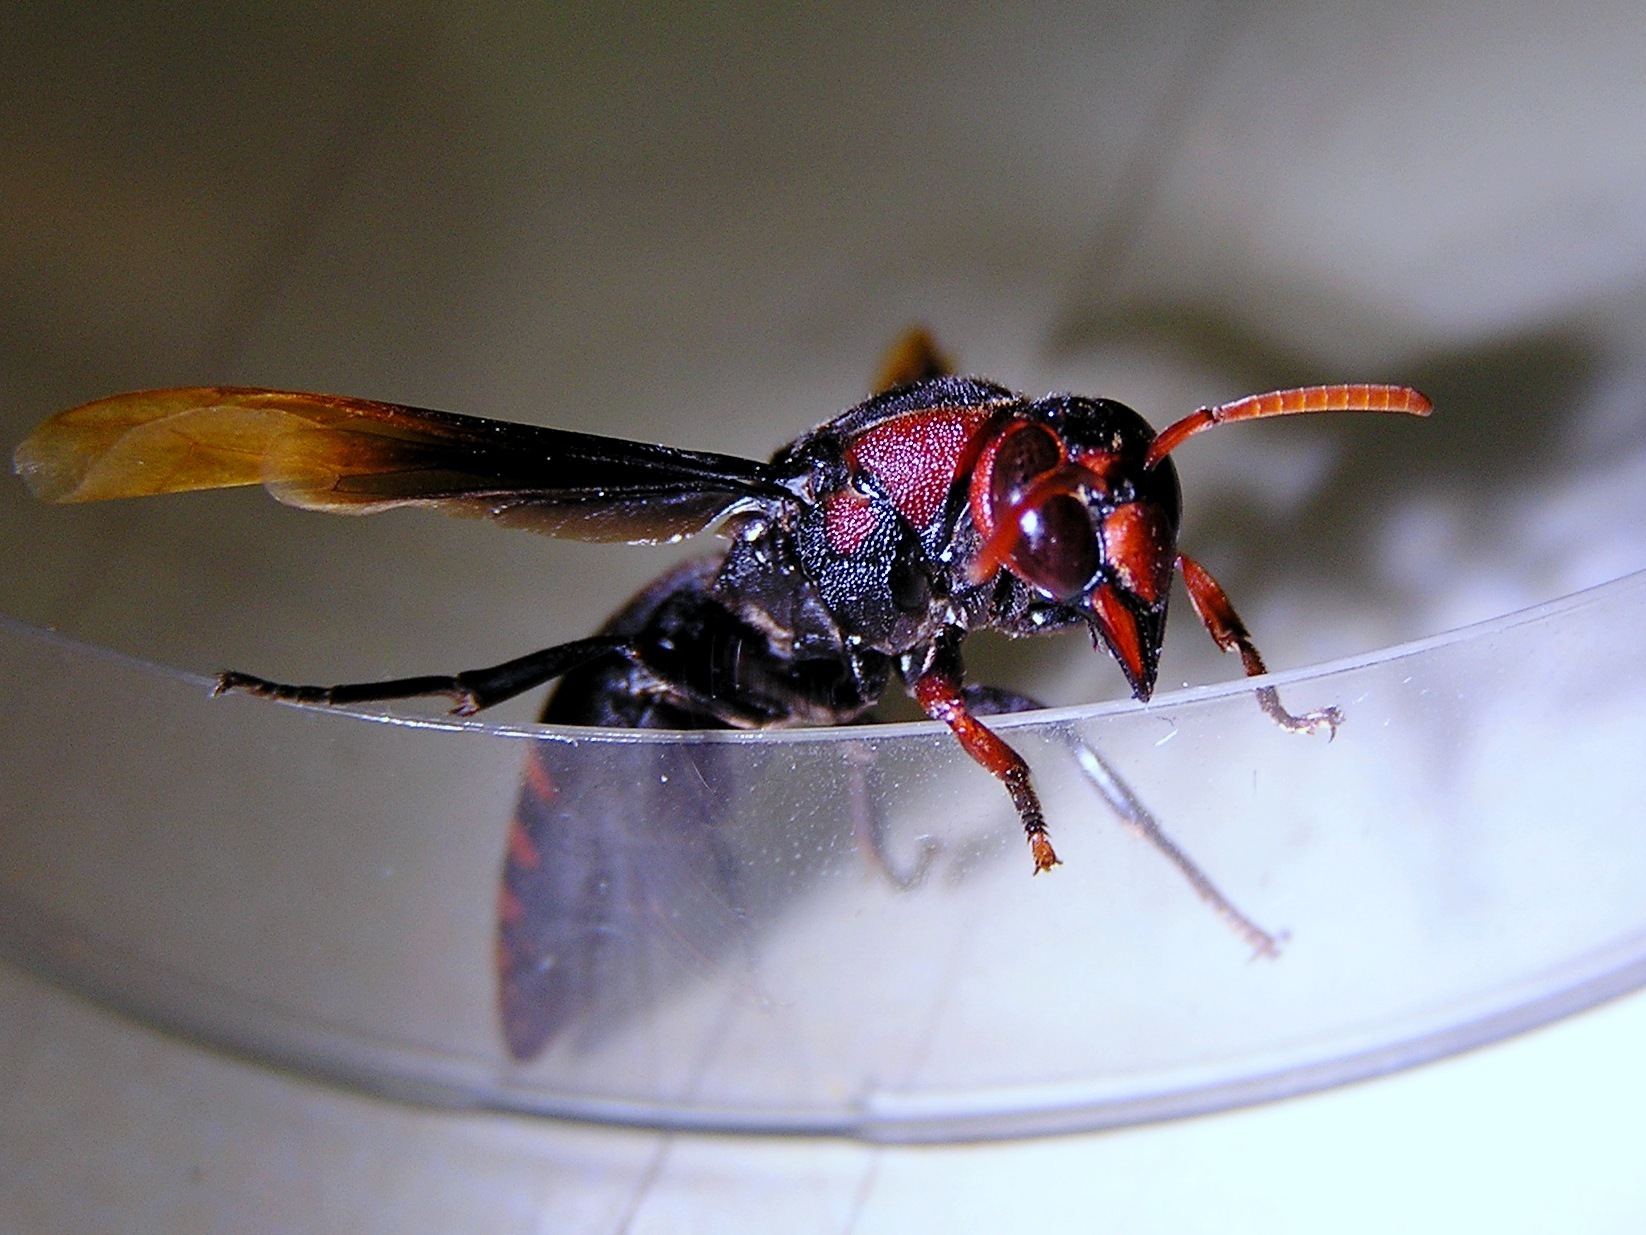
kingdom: Animalia
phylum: Arthropoda
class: Insecta
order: Hymenoptera
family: Eumenidae
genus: Rhynchium
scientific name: Rhynchium haemorrhoidale
